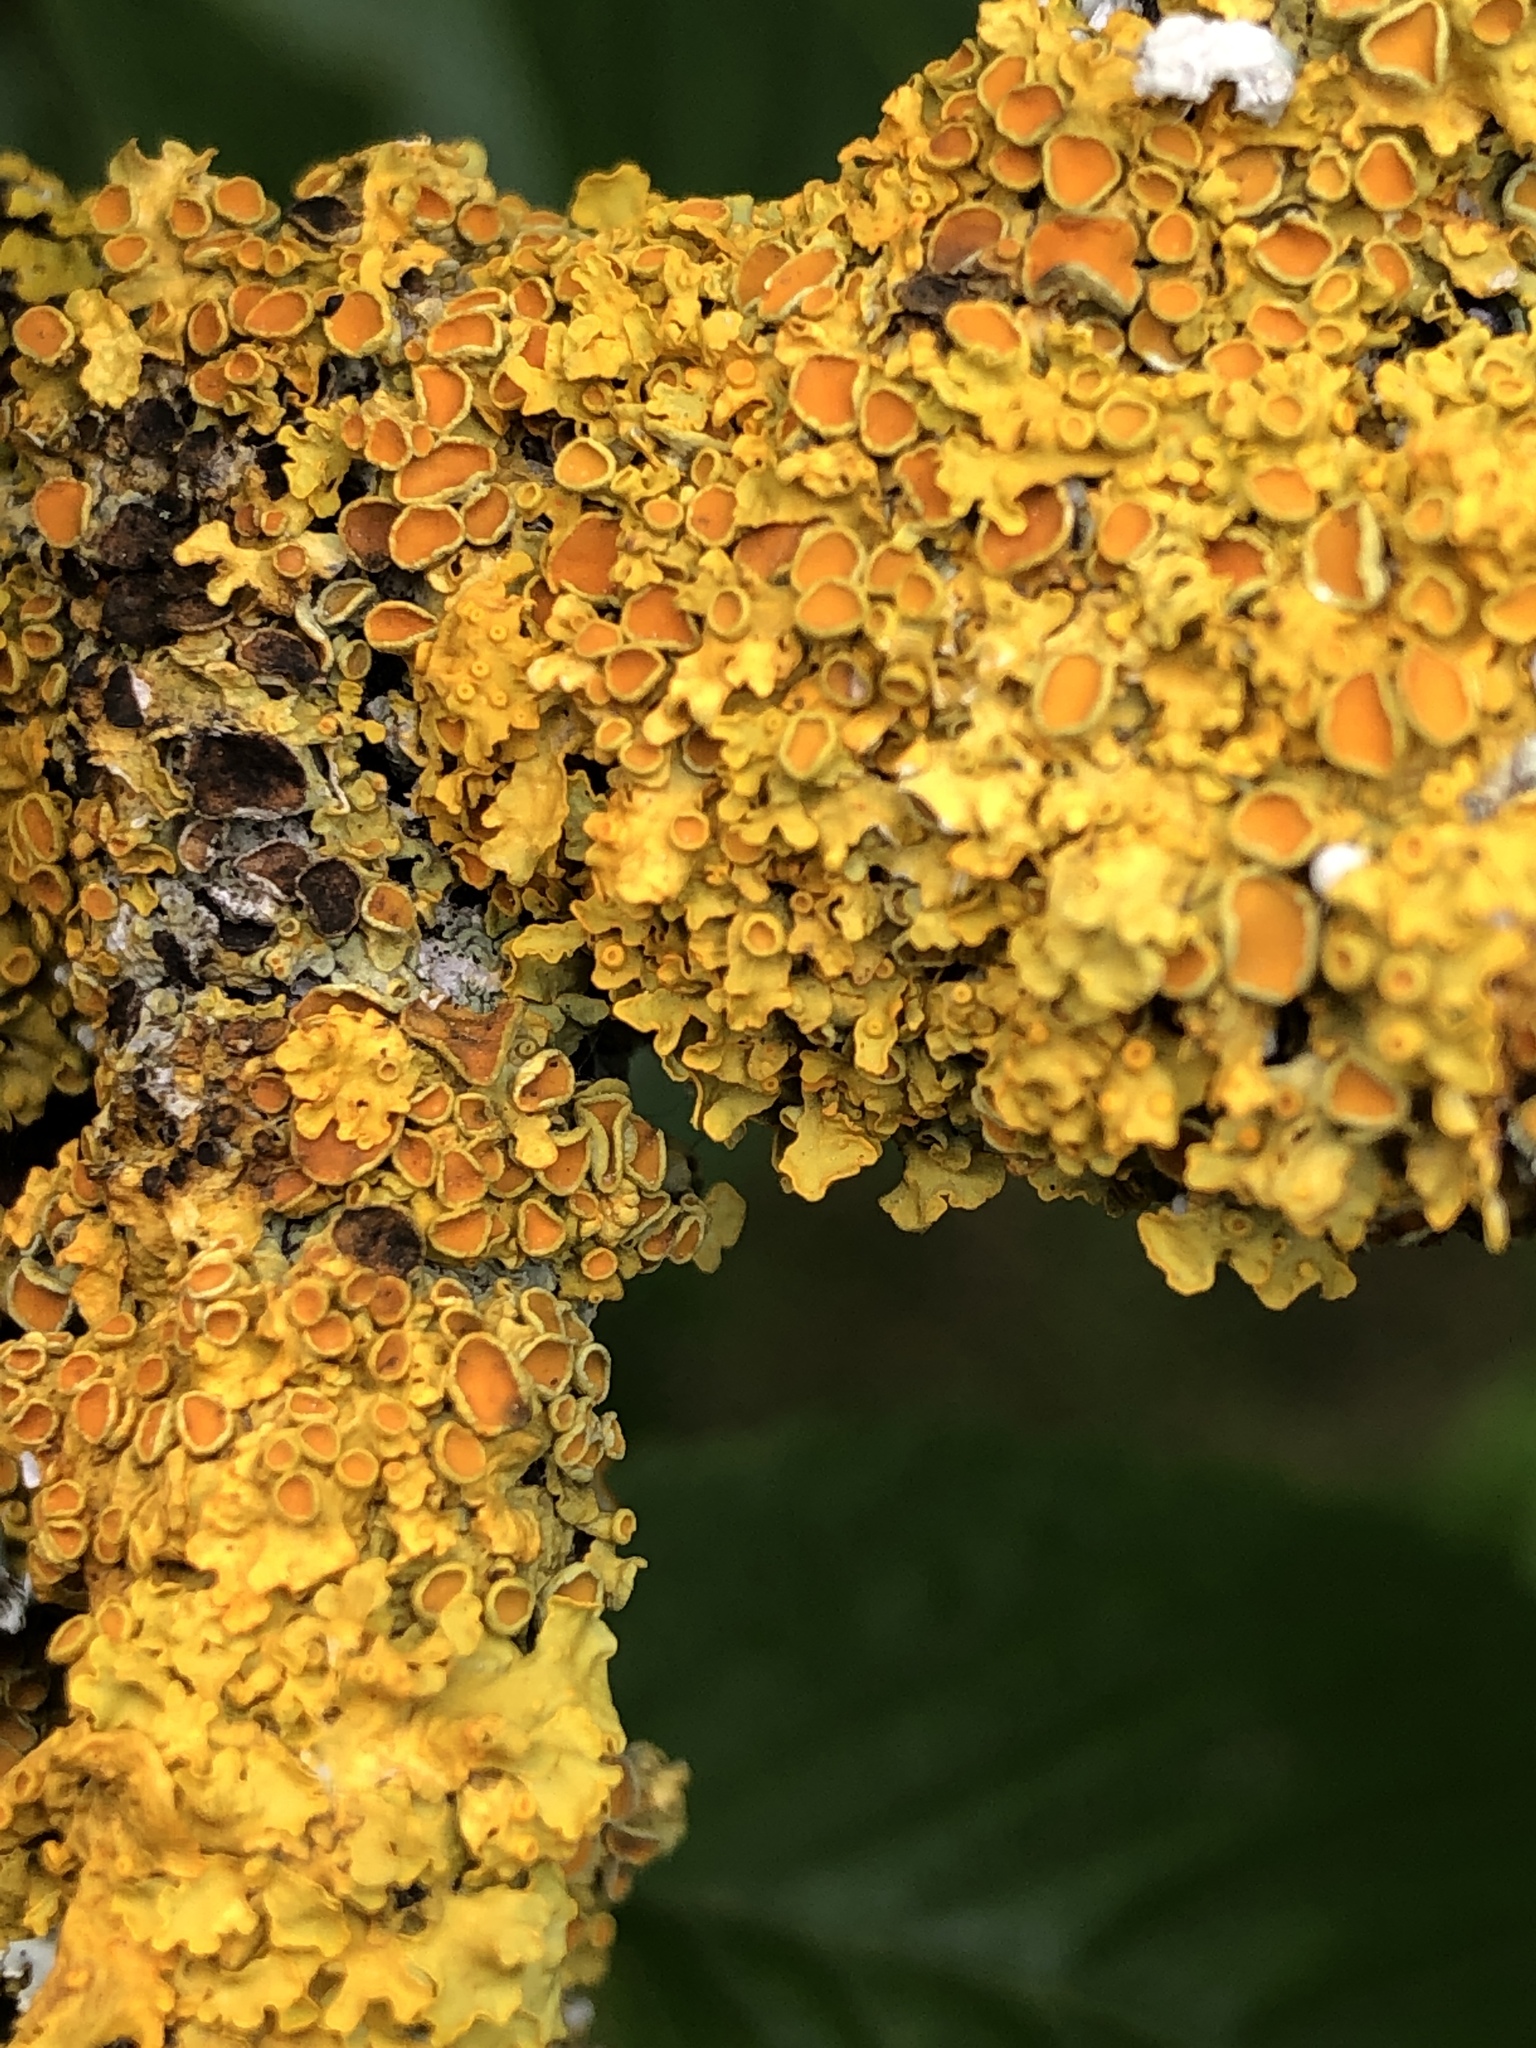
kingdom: Fungi
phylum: Ascomycota
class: Lecanoromycetes
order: Teloschistales
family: Teloschistaceae
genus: Xanthoria
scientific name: Xanthoria parietina
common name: Common orange lichen
